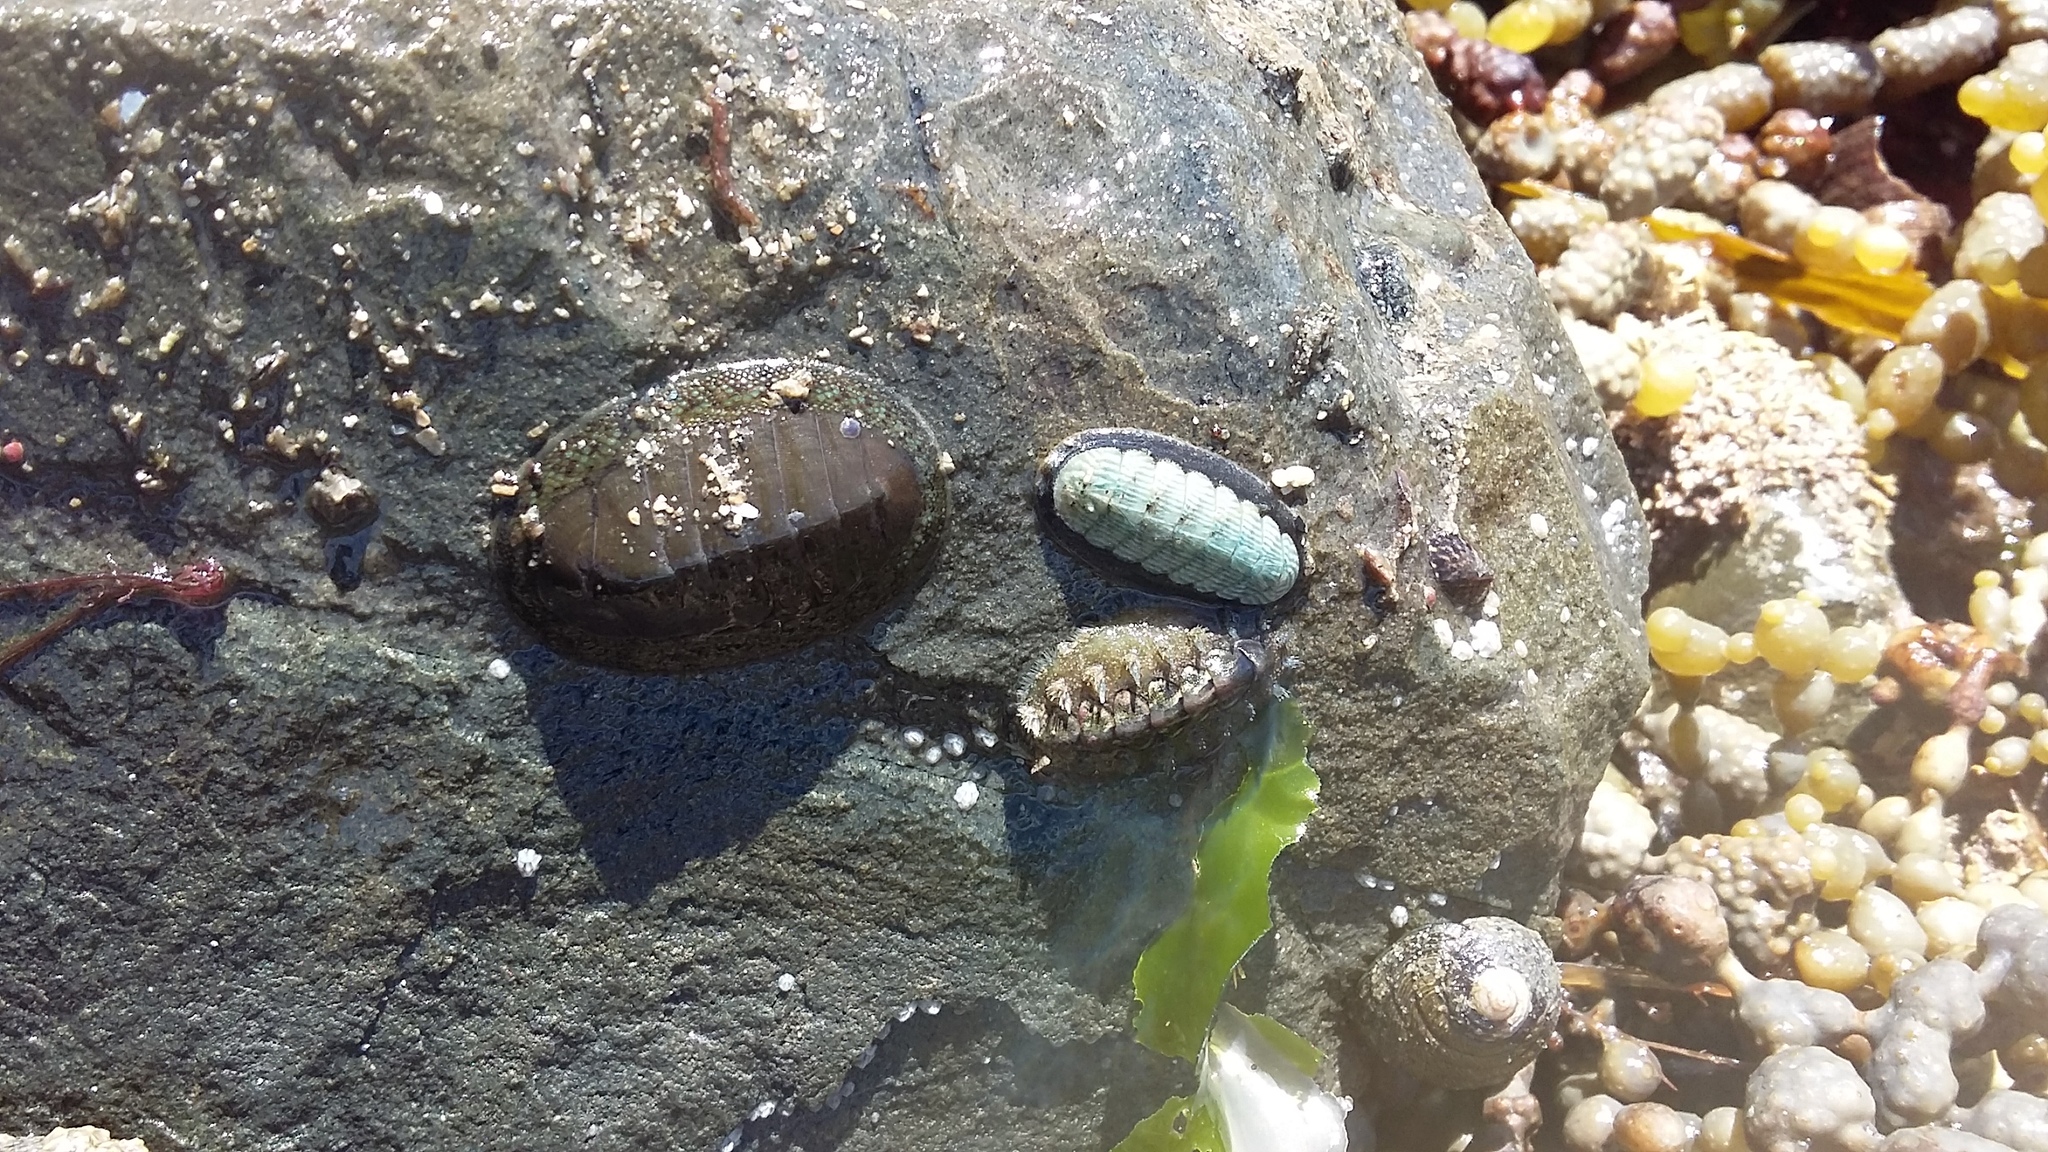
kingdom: Animalia
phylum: Mollusca
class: Polyplacophora
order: Chitonida
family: Ischnochitonidae
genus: Ischnochiton
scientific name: Ischnochiton maorianus
